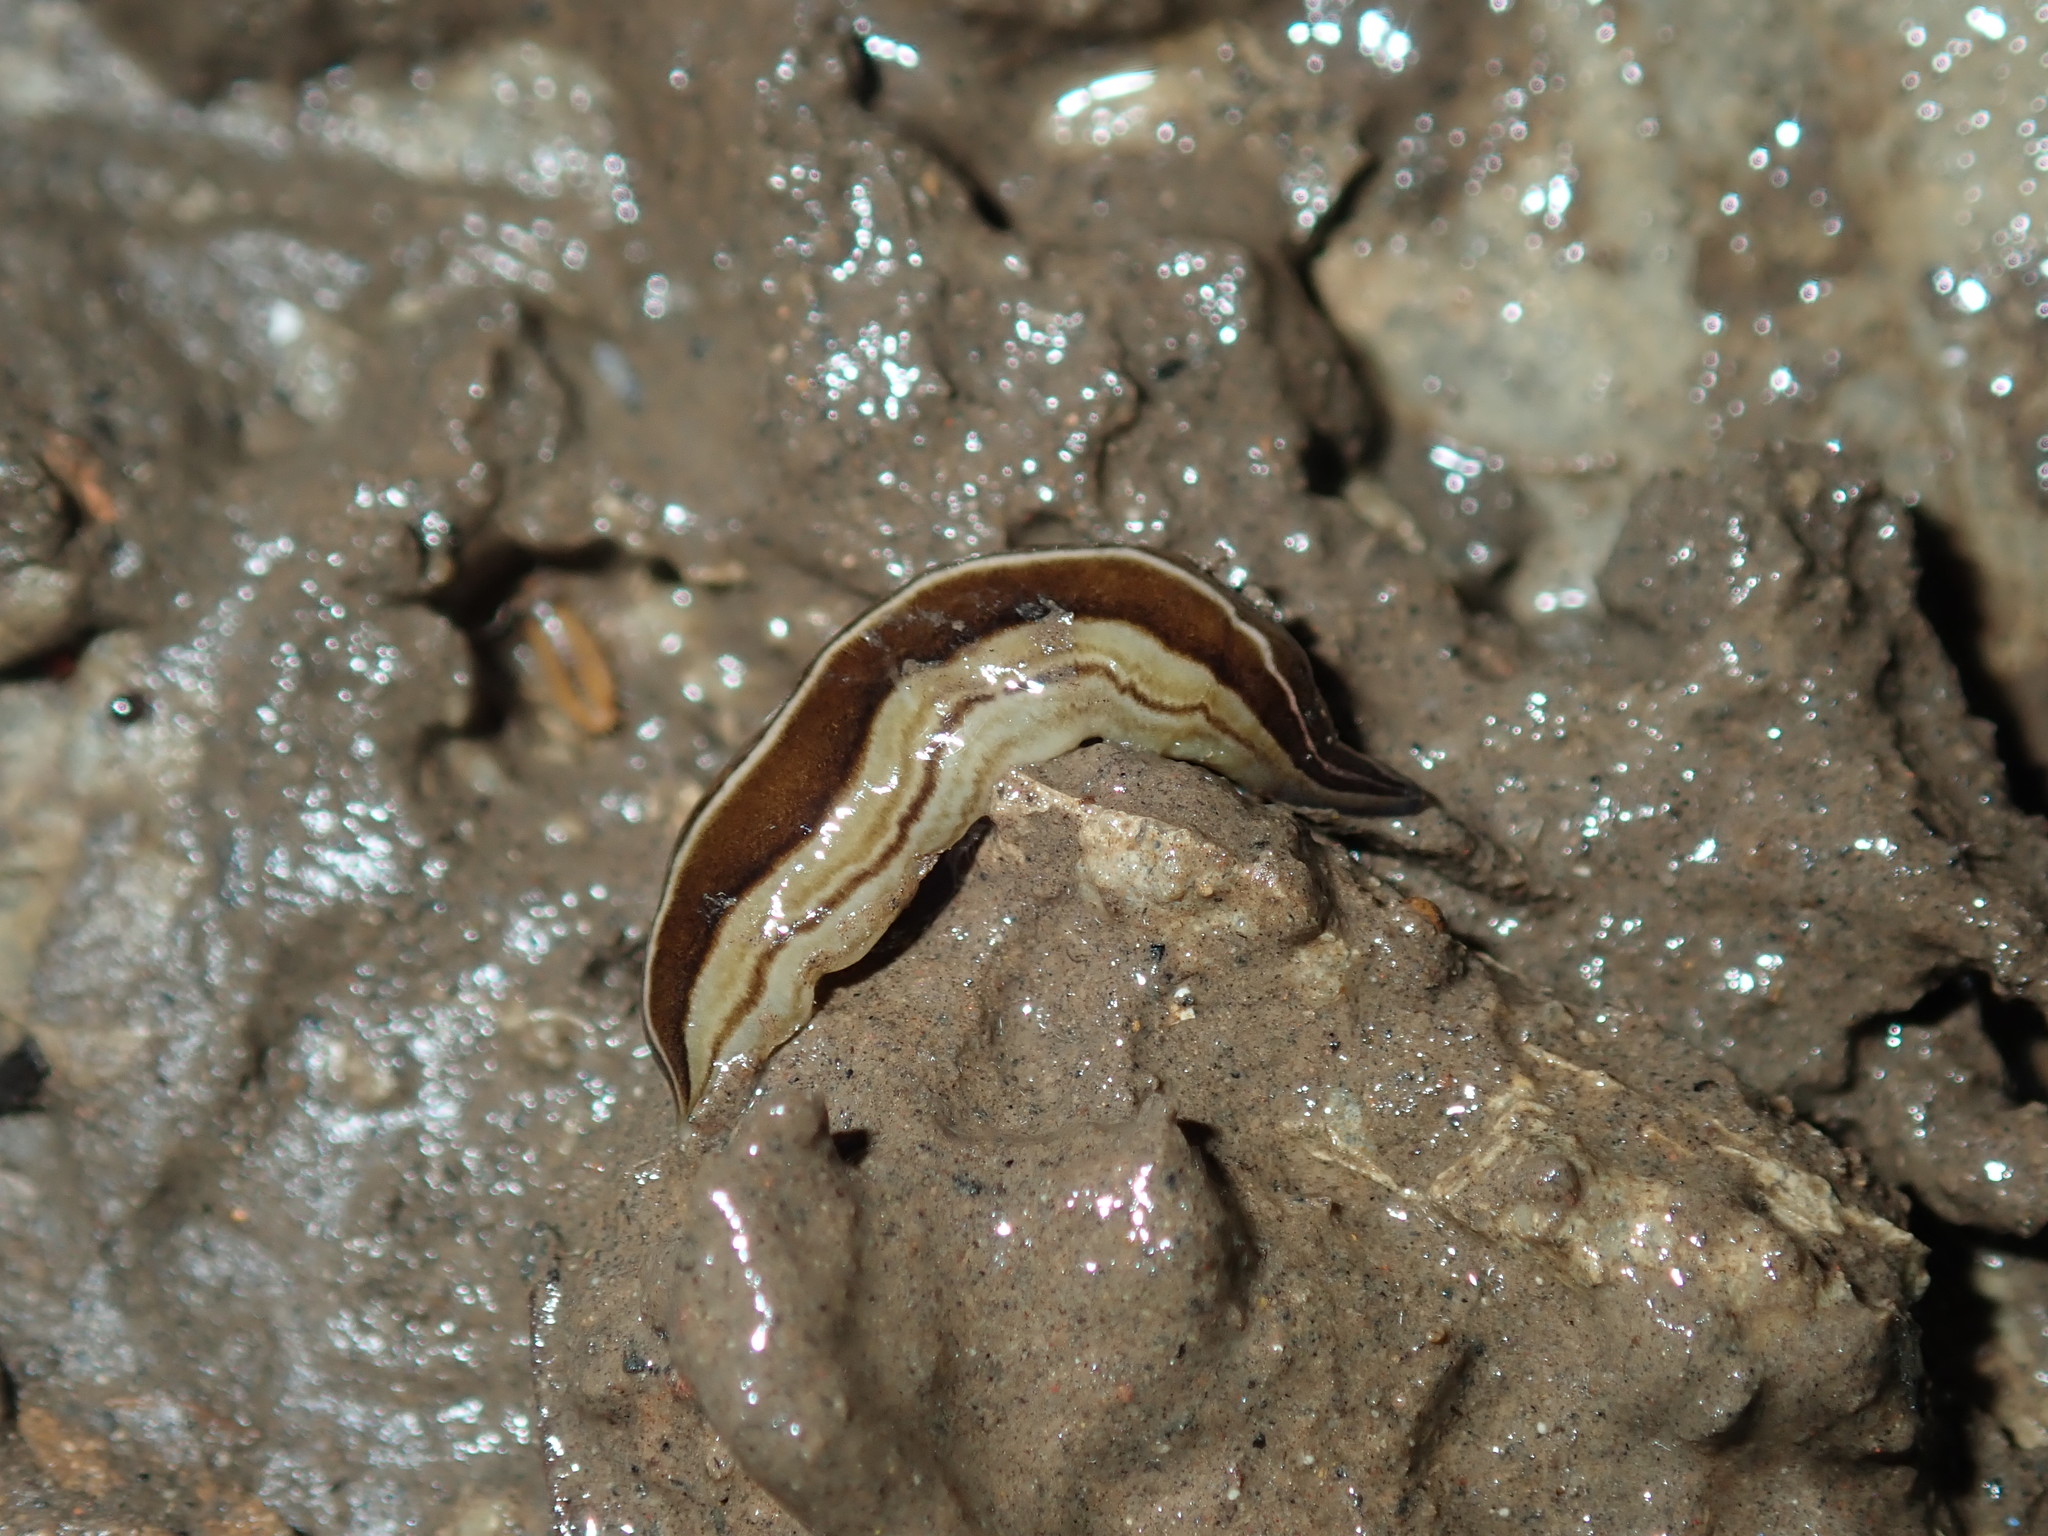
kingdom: Animalia
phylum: Platyhelminthes
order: Tricladida
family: Geoplanidae
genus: Australopacifica
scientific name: Australopacifica scaphoidea
